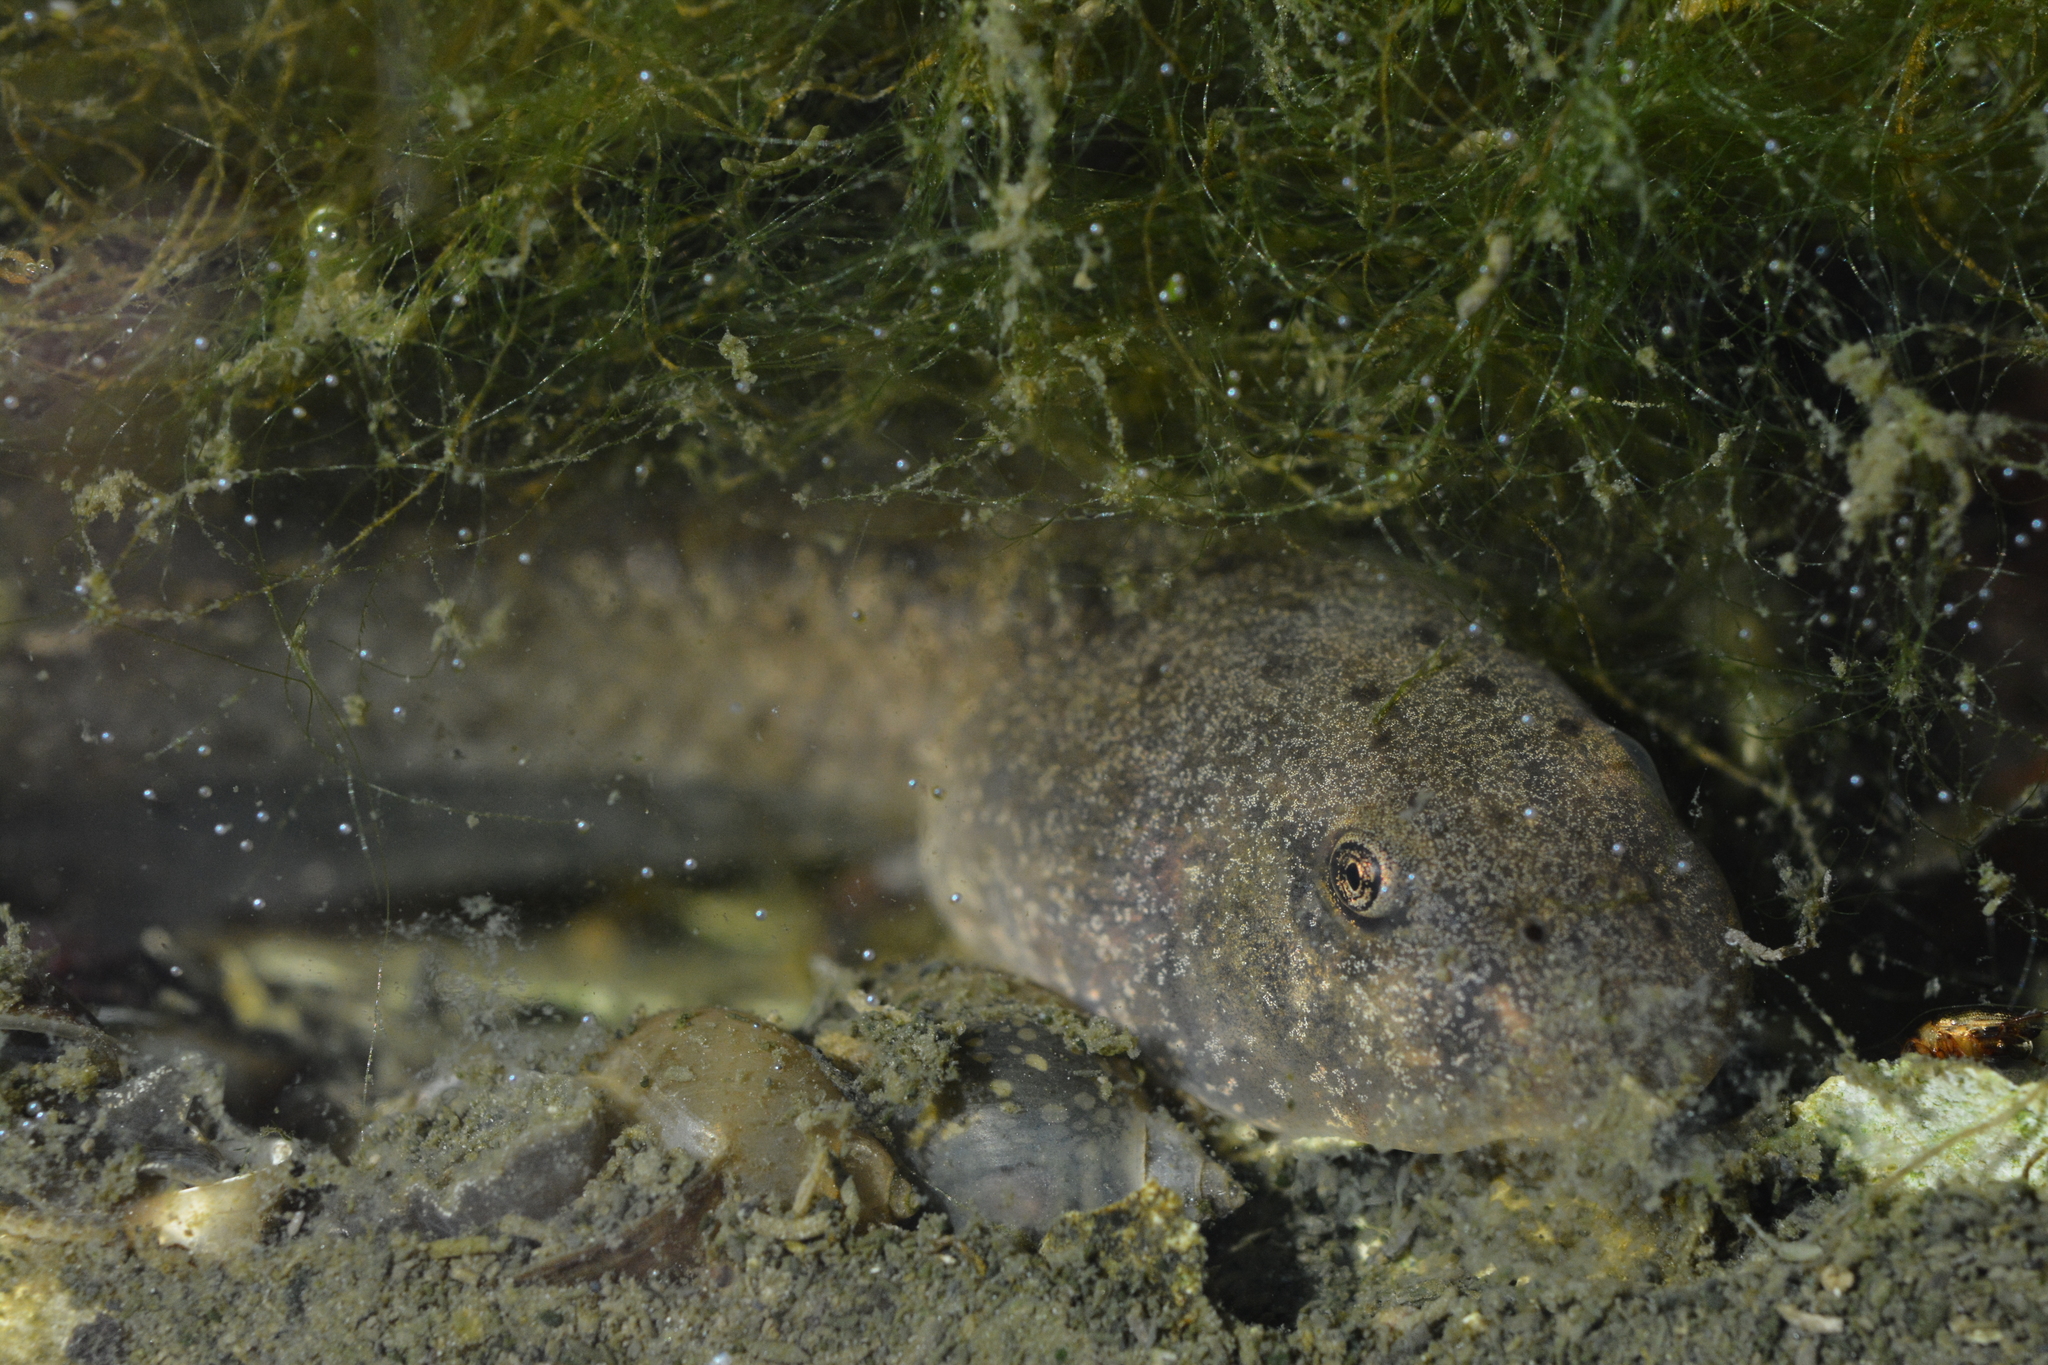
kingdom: Animalia
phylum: Chordata
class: Amphibia
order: Anura
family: Alytidae
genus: Alytes
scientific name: Alytes obstetricans
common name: Midwife toad
